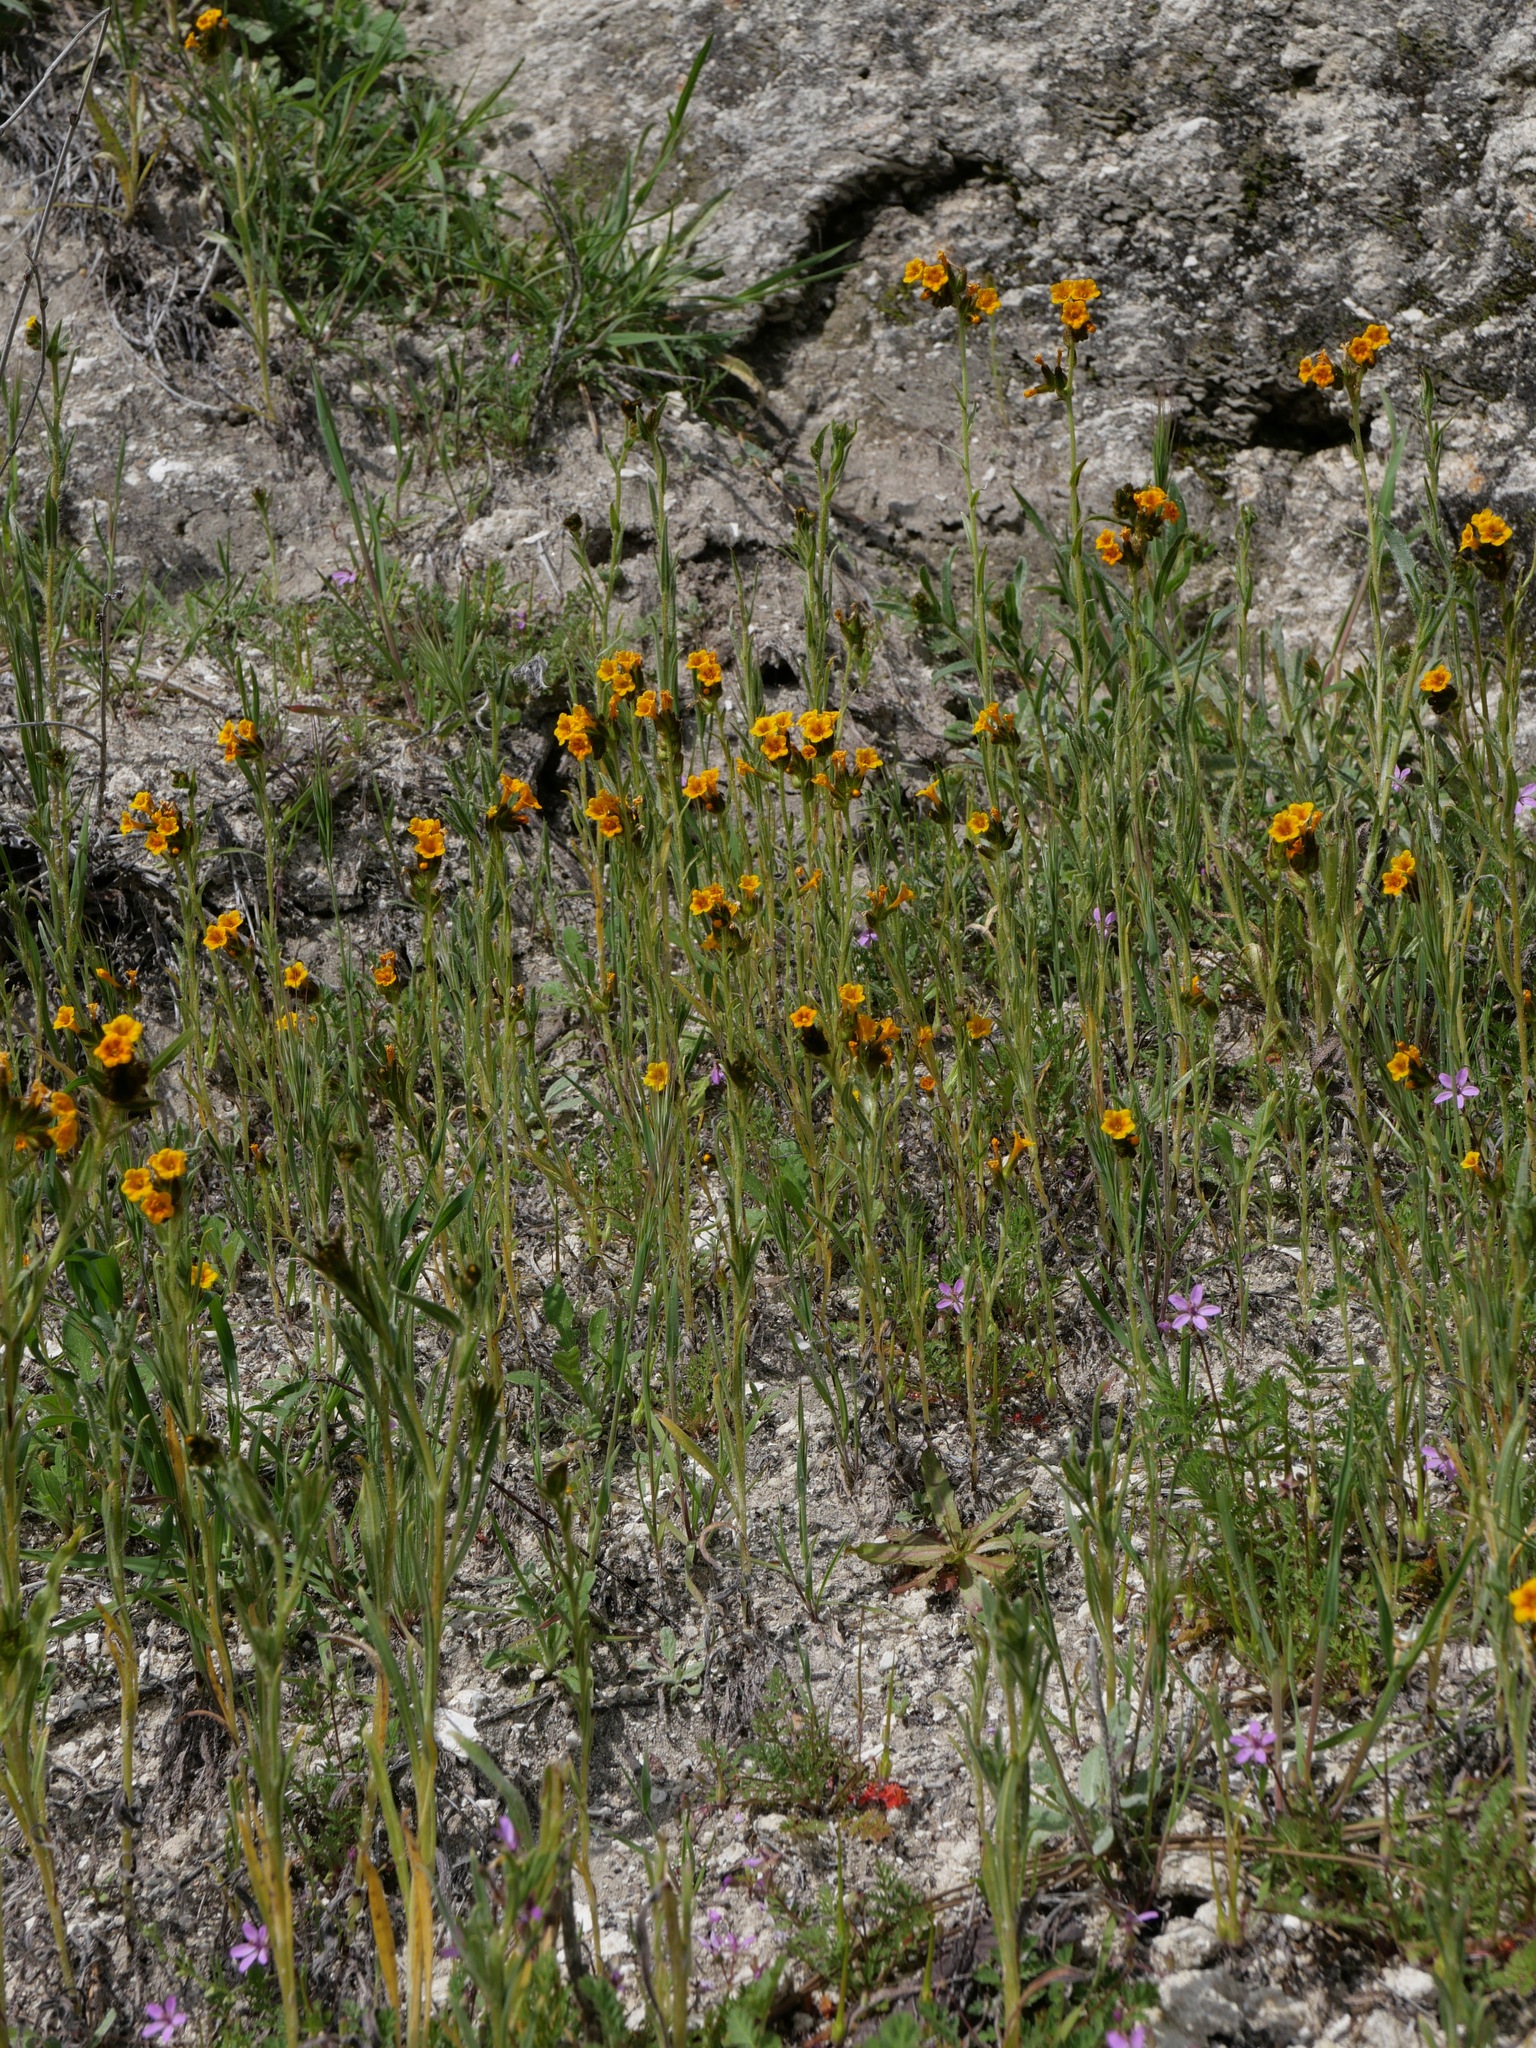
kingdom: Plantae
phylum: Tracheophyta
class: Magnoliopsida
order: Boraginales
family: Boraginaceae
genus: Amsinckia
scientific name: Amsinckia menziesii
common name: Menzies' fiddleneck
